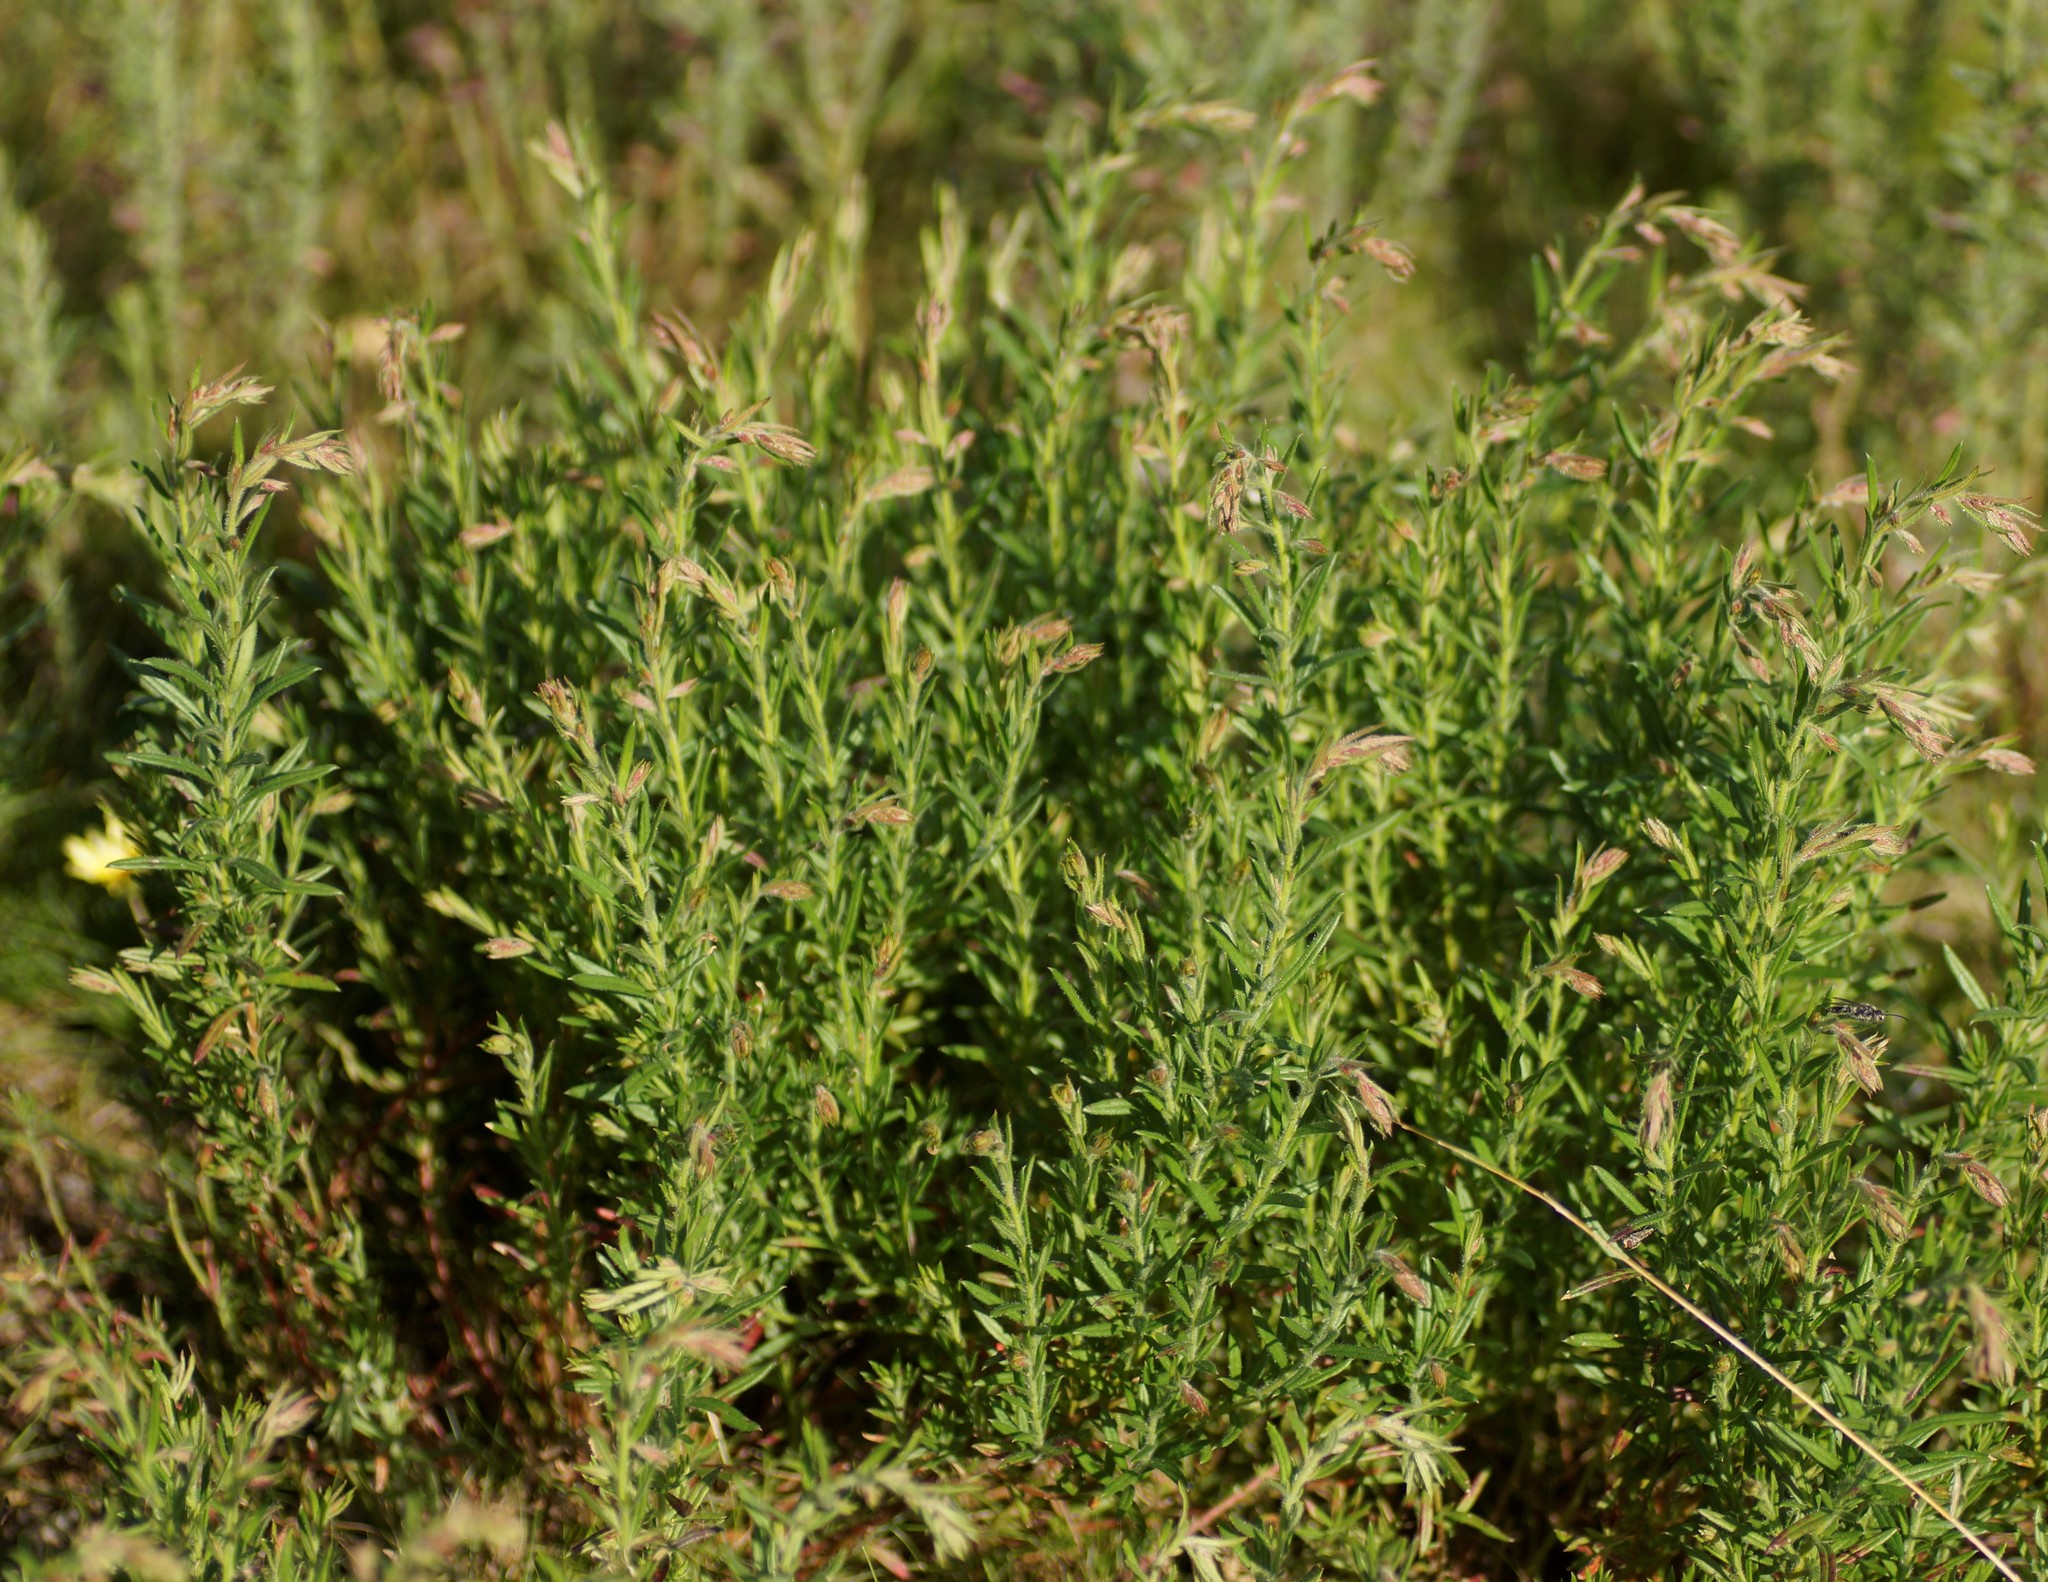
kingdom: Plantae
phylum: Tracheophyta
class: Magnoliopsida
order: Saxifragales
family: Haloragaceae
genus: Gonocarpus
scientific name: Gonocarpus tetragynus
